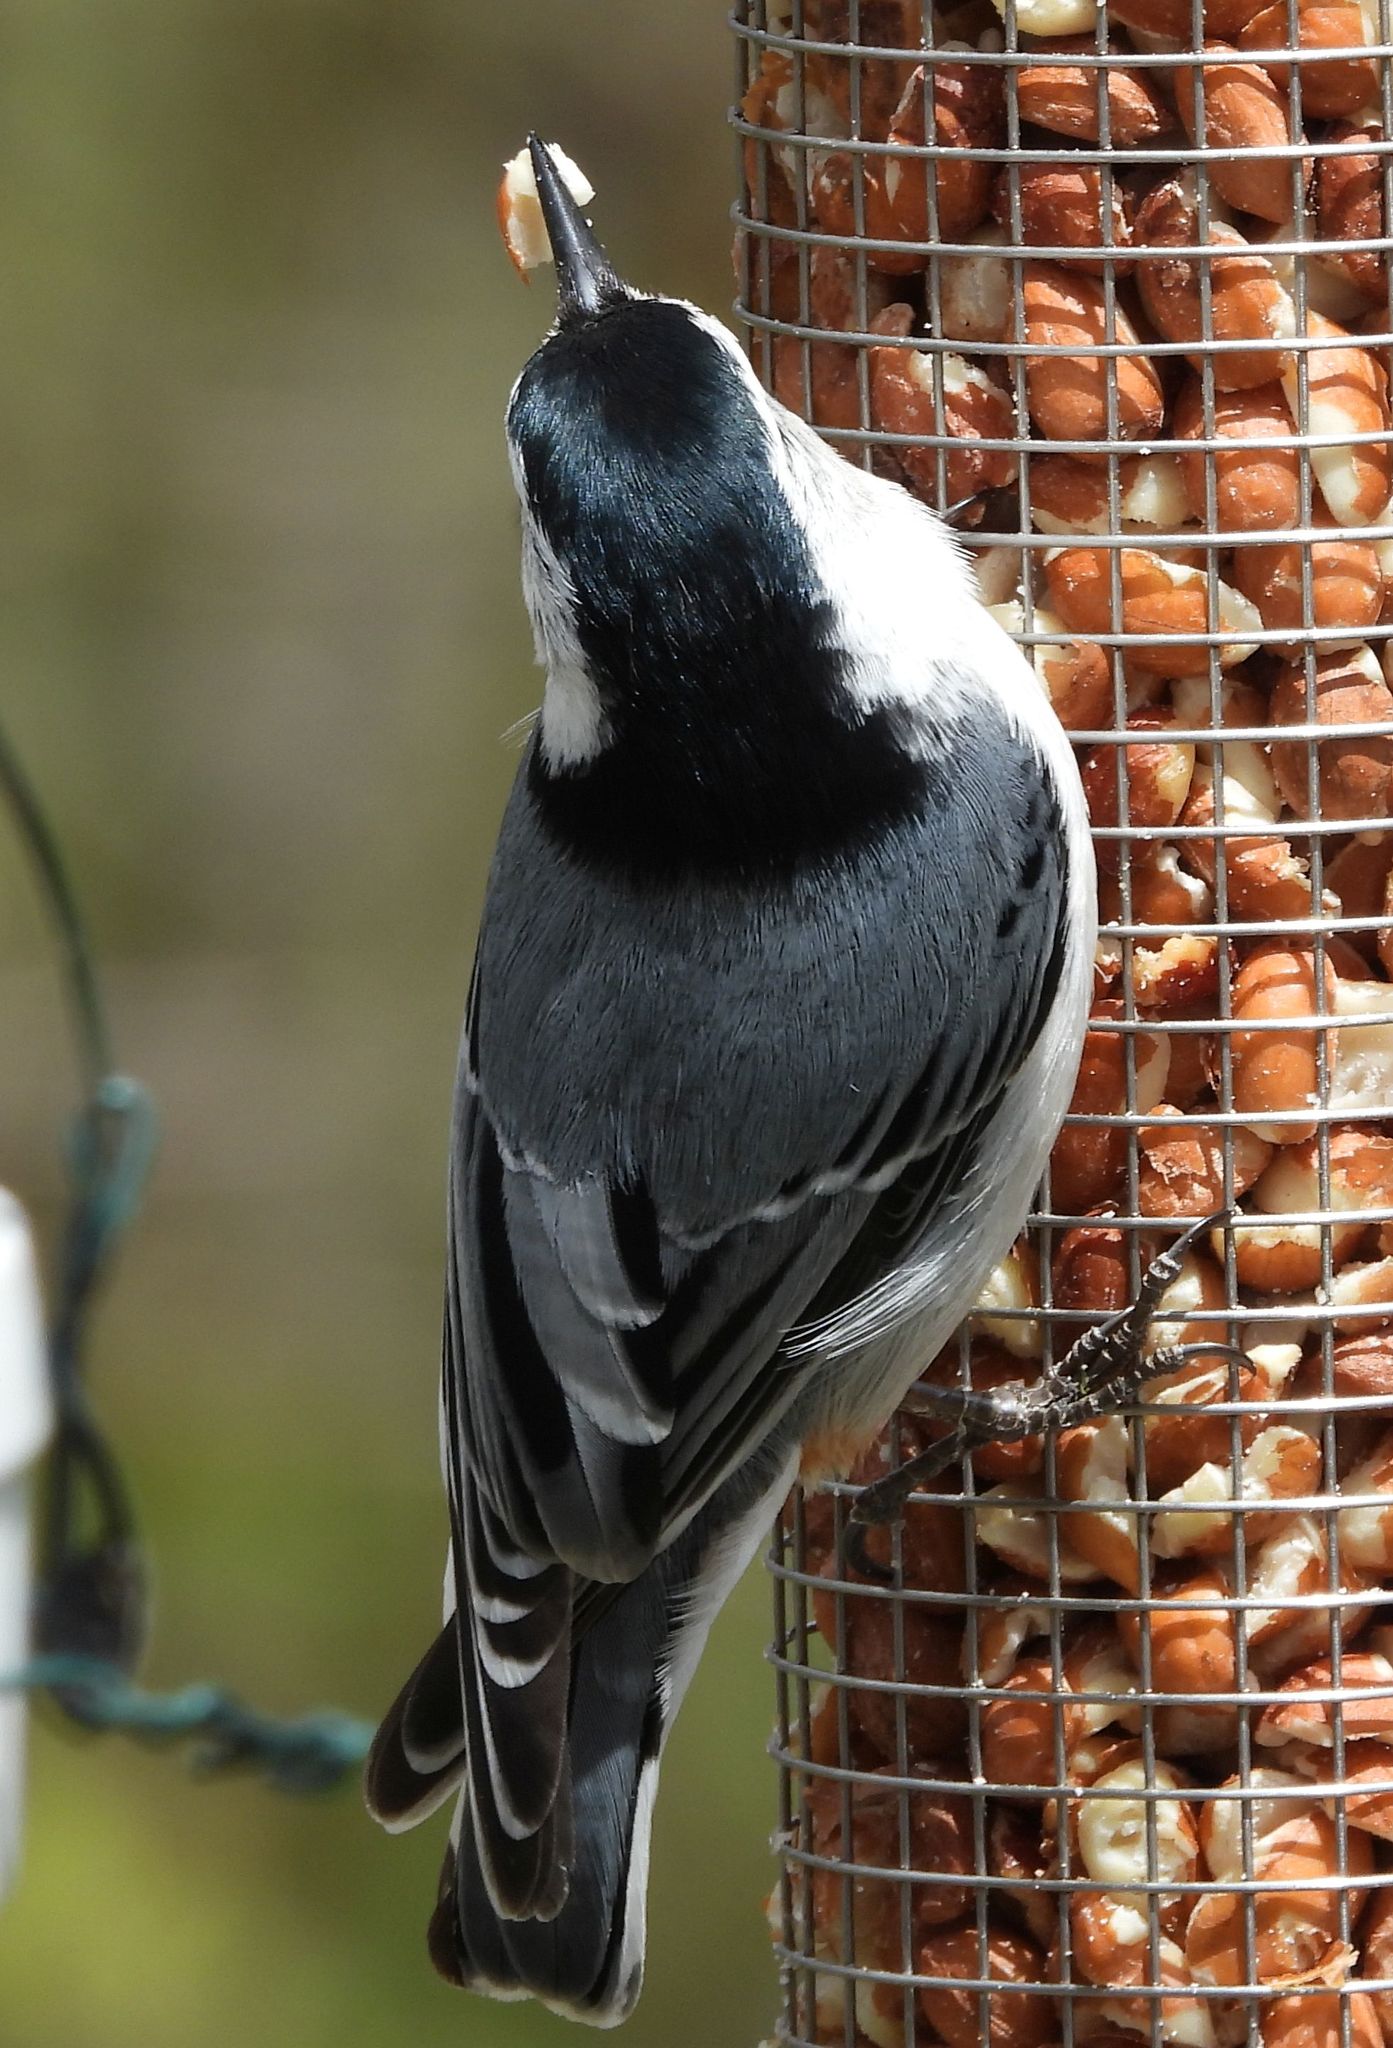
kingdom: Animalia
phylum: Chordata
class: Aves
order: Passeriformes
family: Sittidae
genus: Sitta
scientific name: Sitta carolinensis
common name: White-breasted nuthatch
